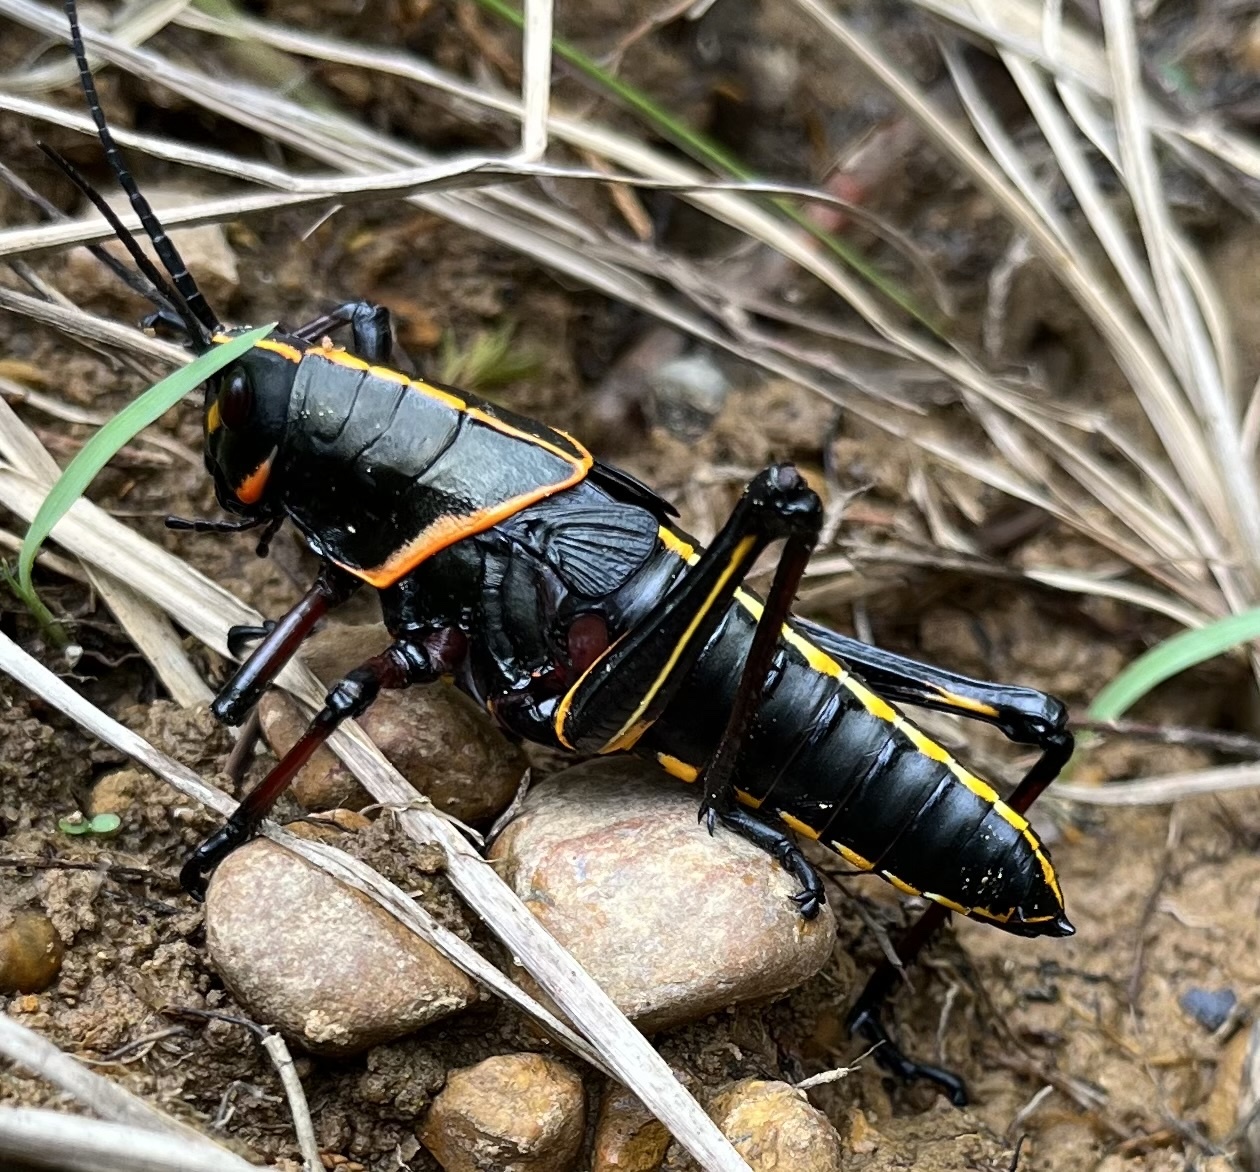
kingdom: Animalia
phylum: Arthropoda
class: Insecta
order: Orthoptera
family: Romaleidae
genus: Romalea
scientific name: Romalea microptera
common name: Eastern lubber grasshopper
